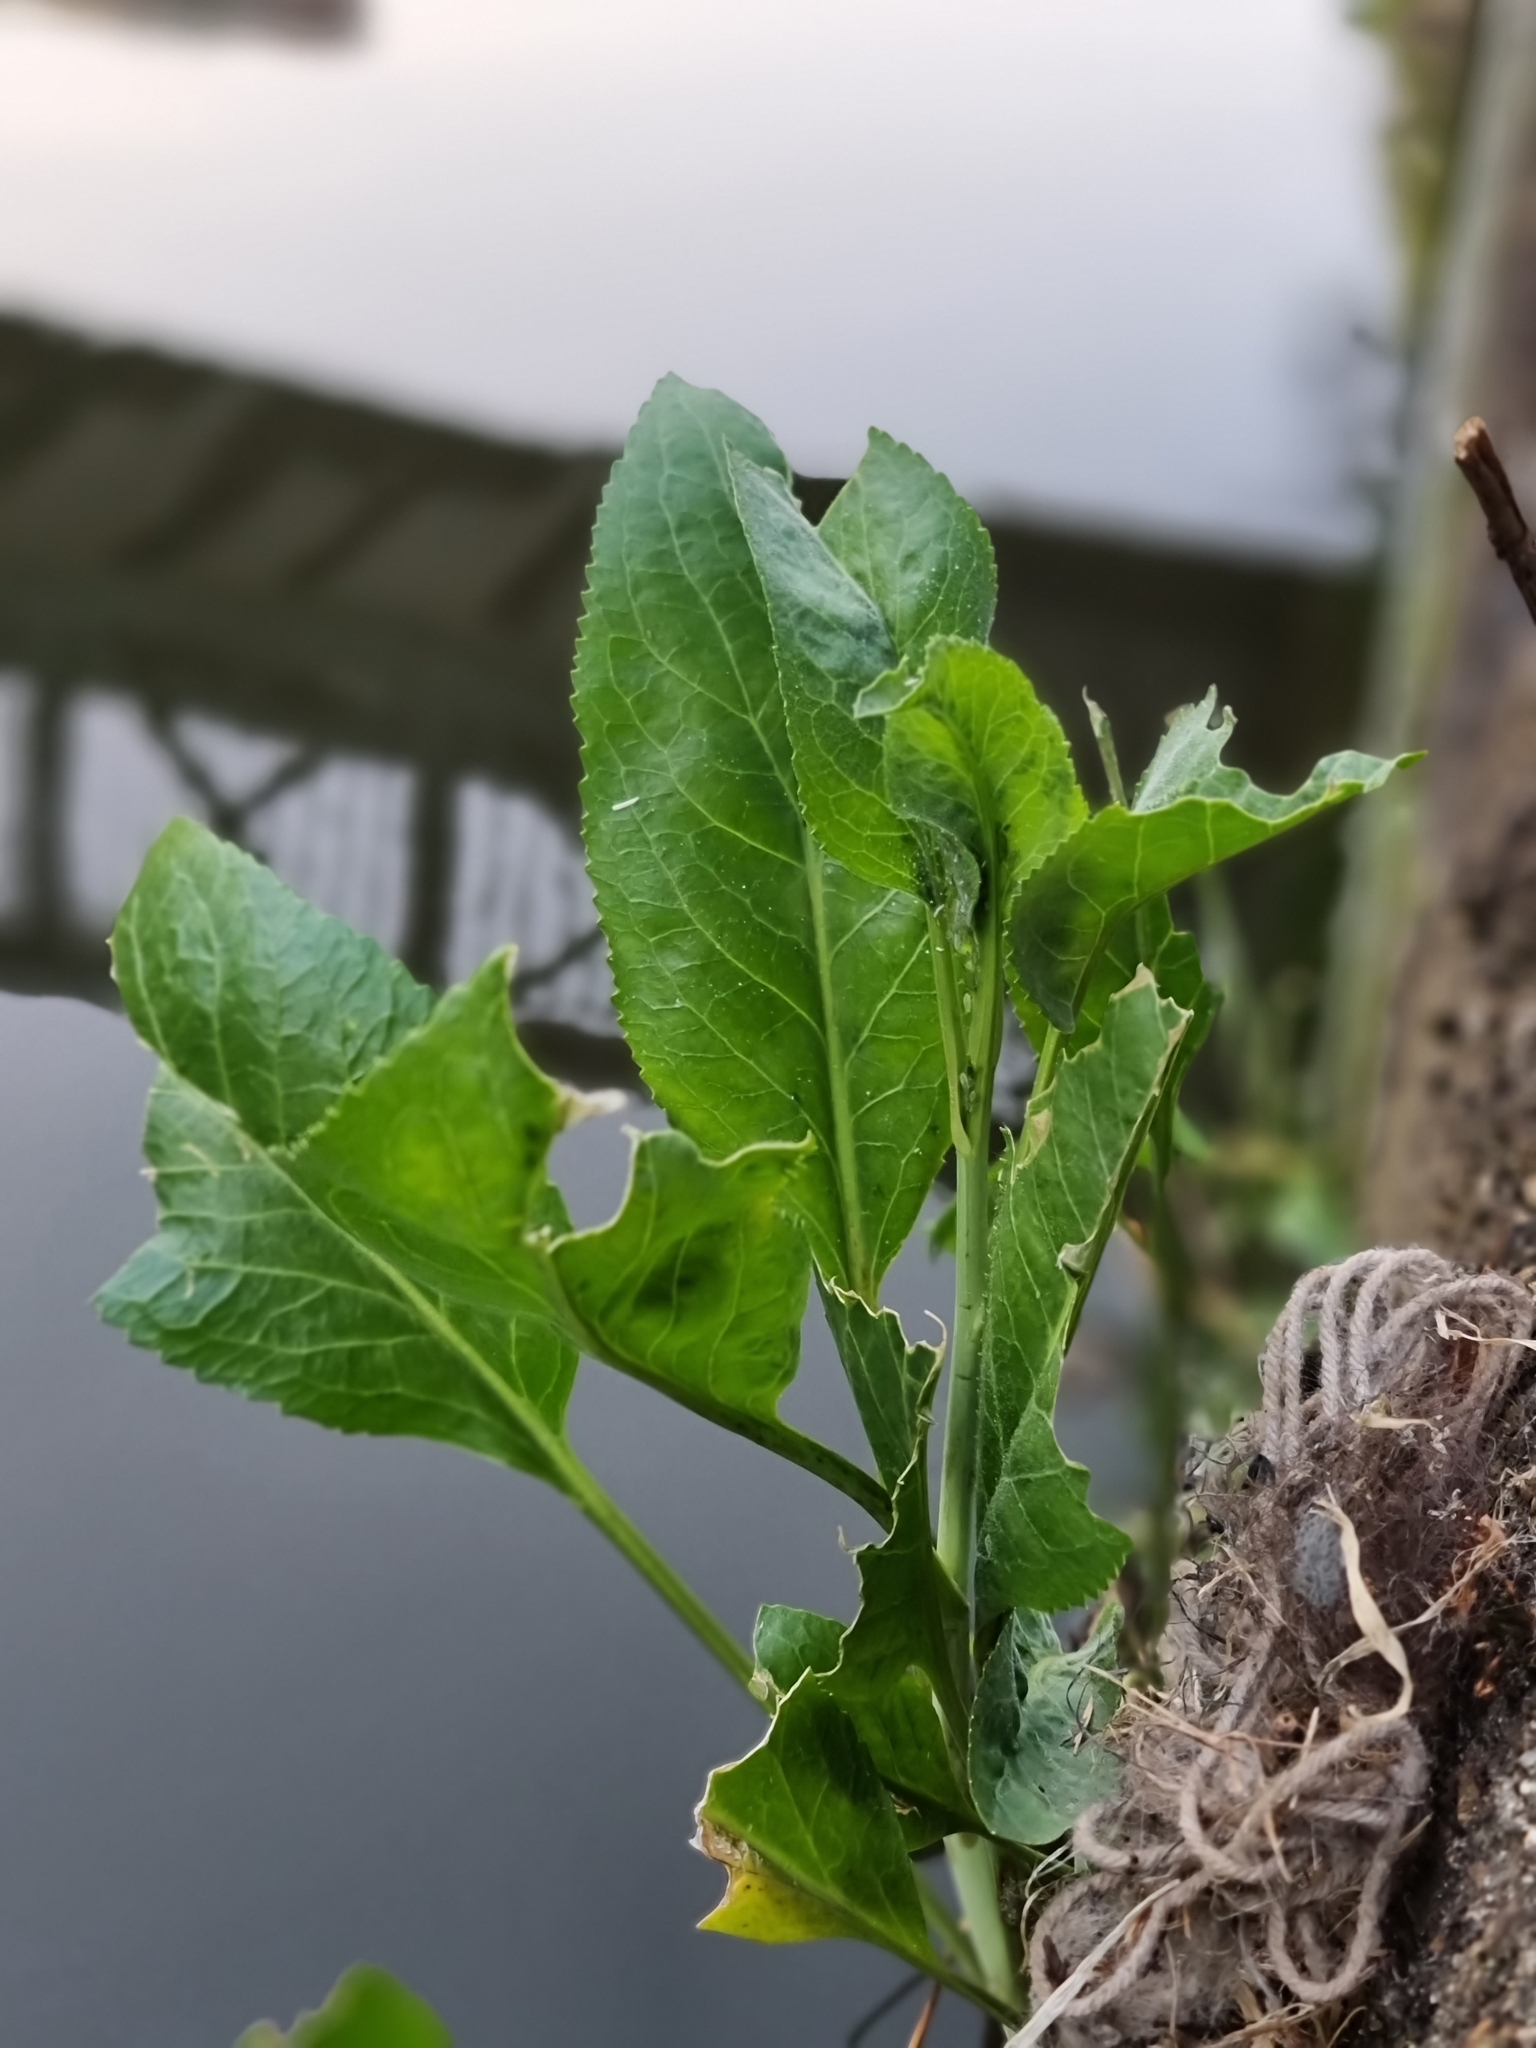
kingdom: Plantae
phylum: Tracheophyta
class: Magnoliopsida
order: Brassicales
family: Brassicaceae
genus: Lepidium
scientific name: Lepidium latifolium
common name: Dittander
